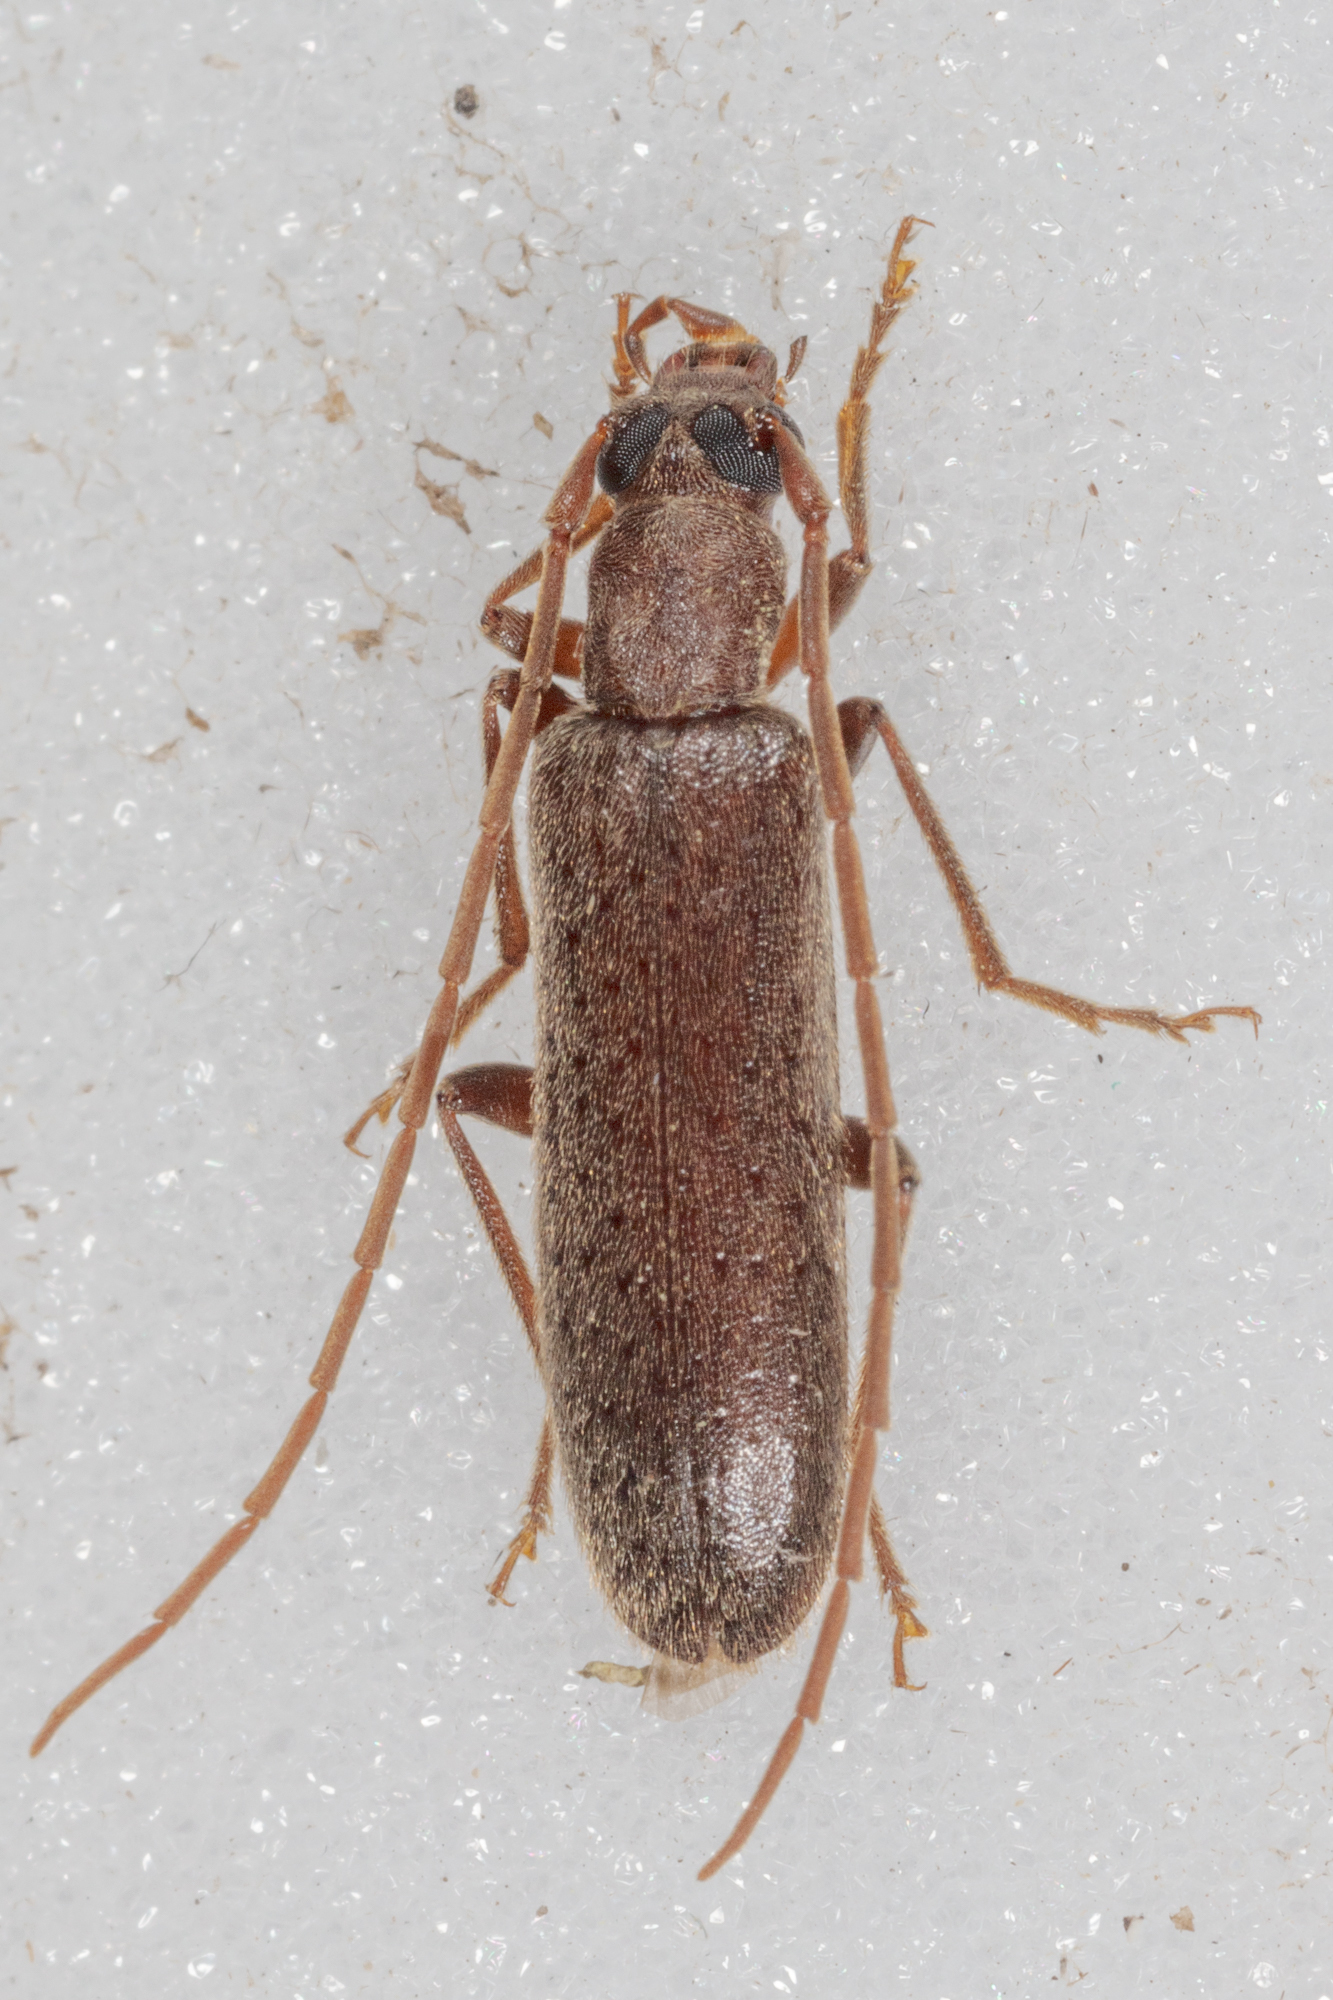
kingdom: Animalia
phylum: Arthropoda
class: Insecta
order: Coleoptera
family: Oedemeridae
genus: Sparedrus
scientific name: Sparedrus aspersus
